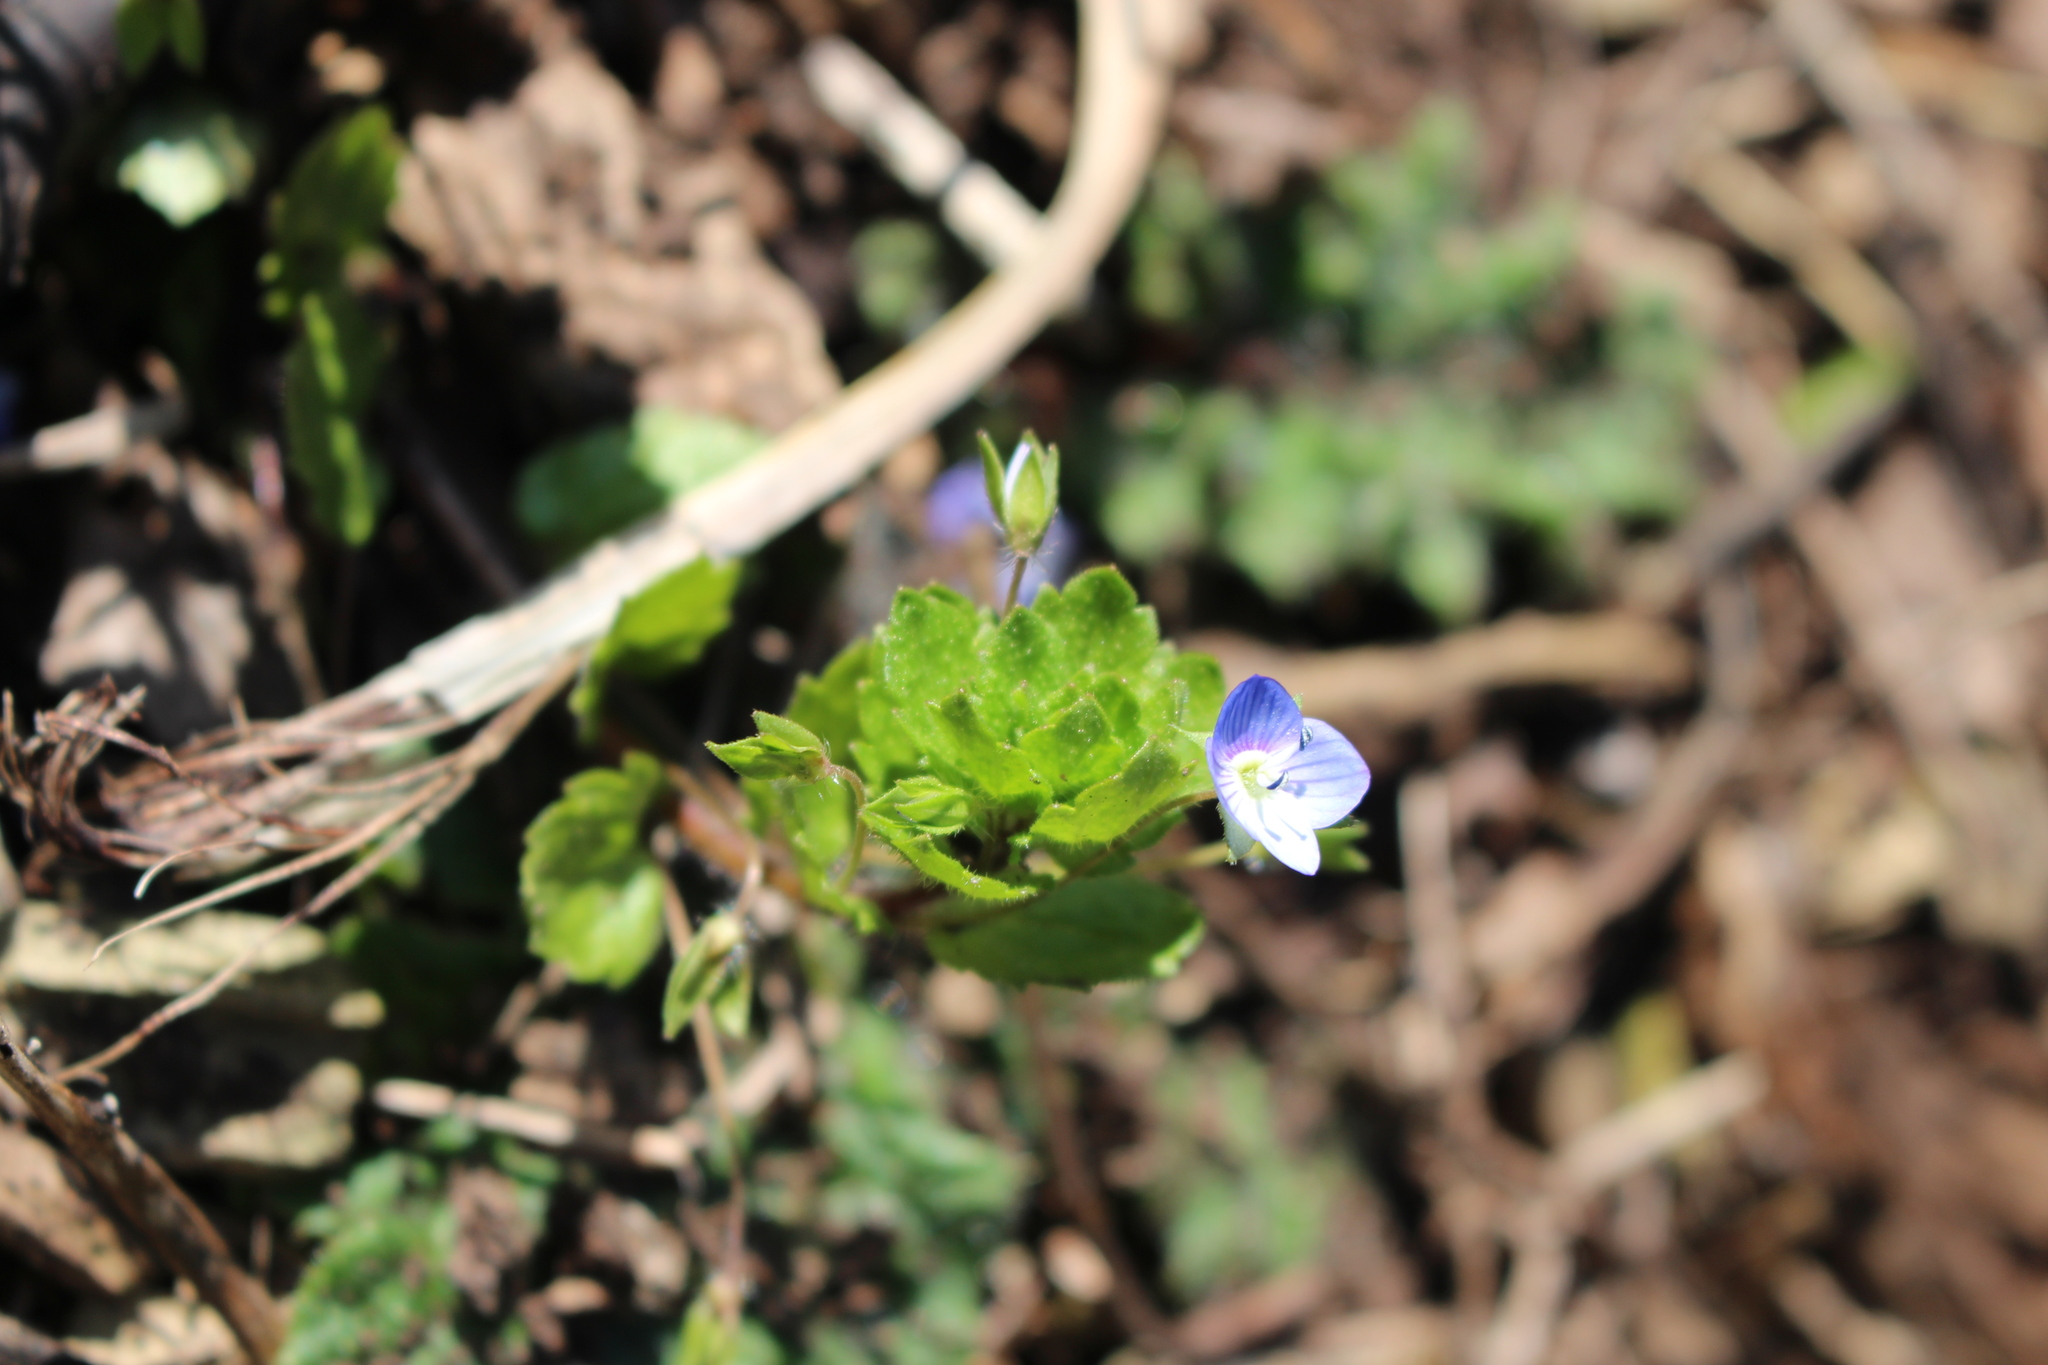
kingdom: Plantae
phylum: Tracheophyta
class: Magnoliopsida
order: Lamiales
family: Plantaginaceae
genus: Veronica
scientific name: Veronica persica
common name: Common field-speedwell
